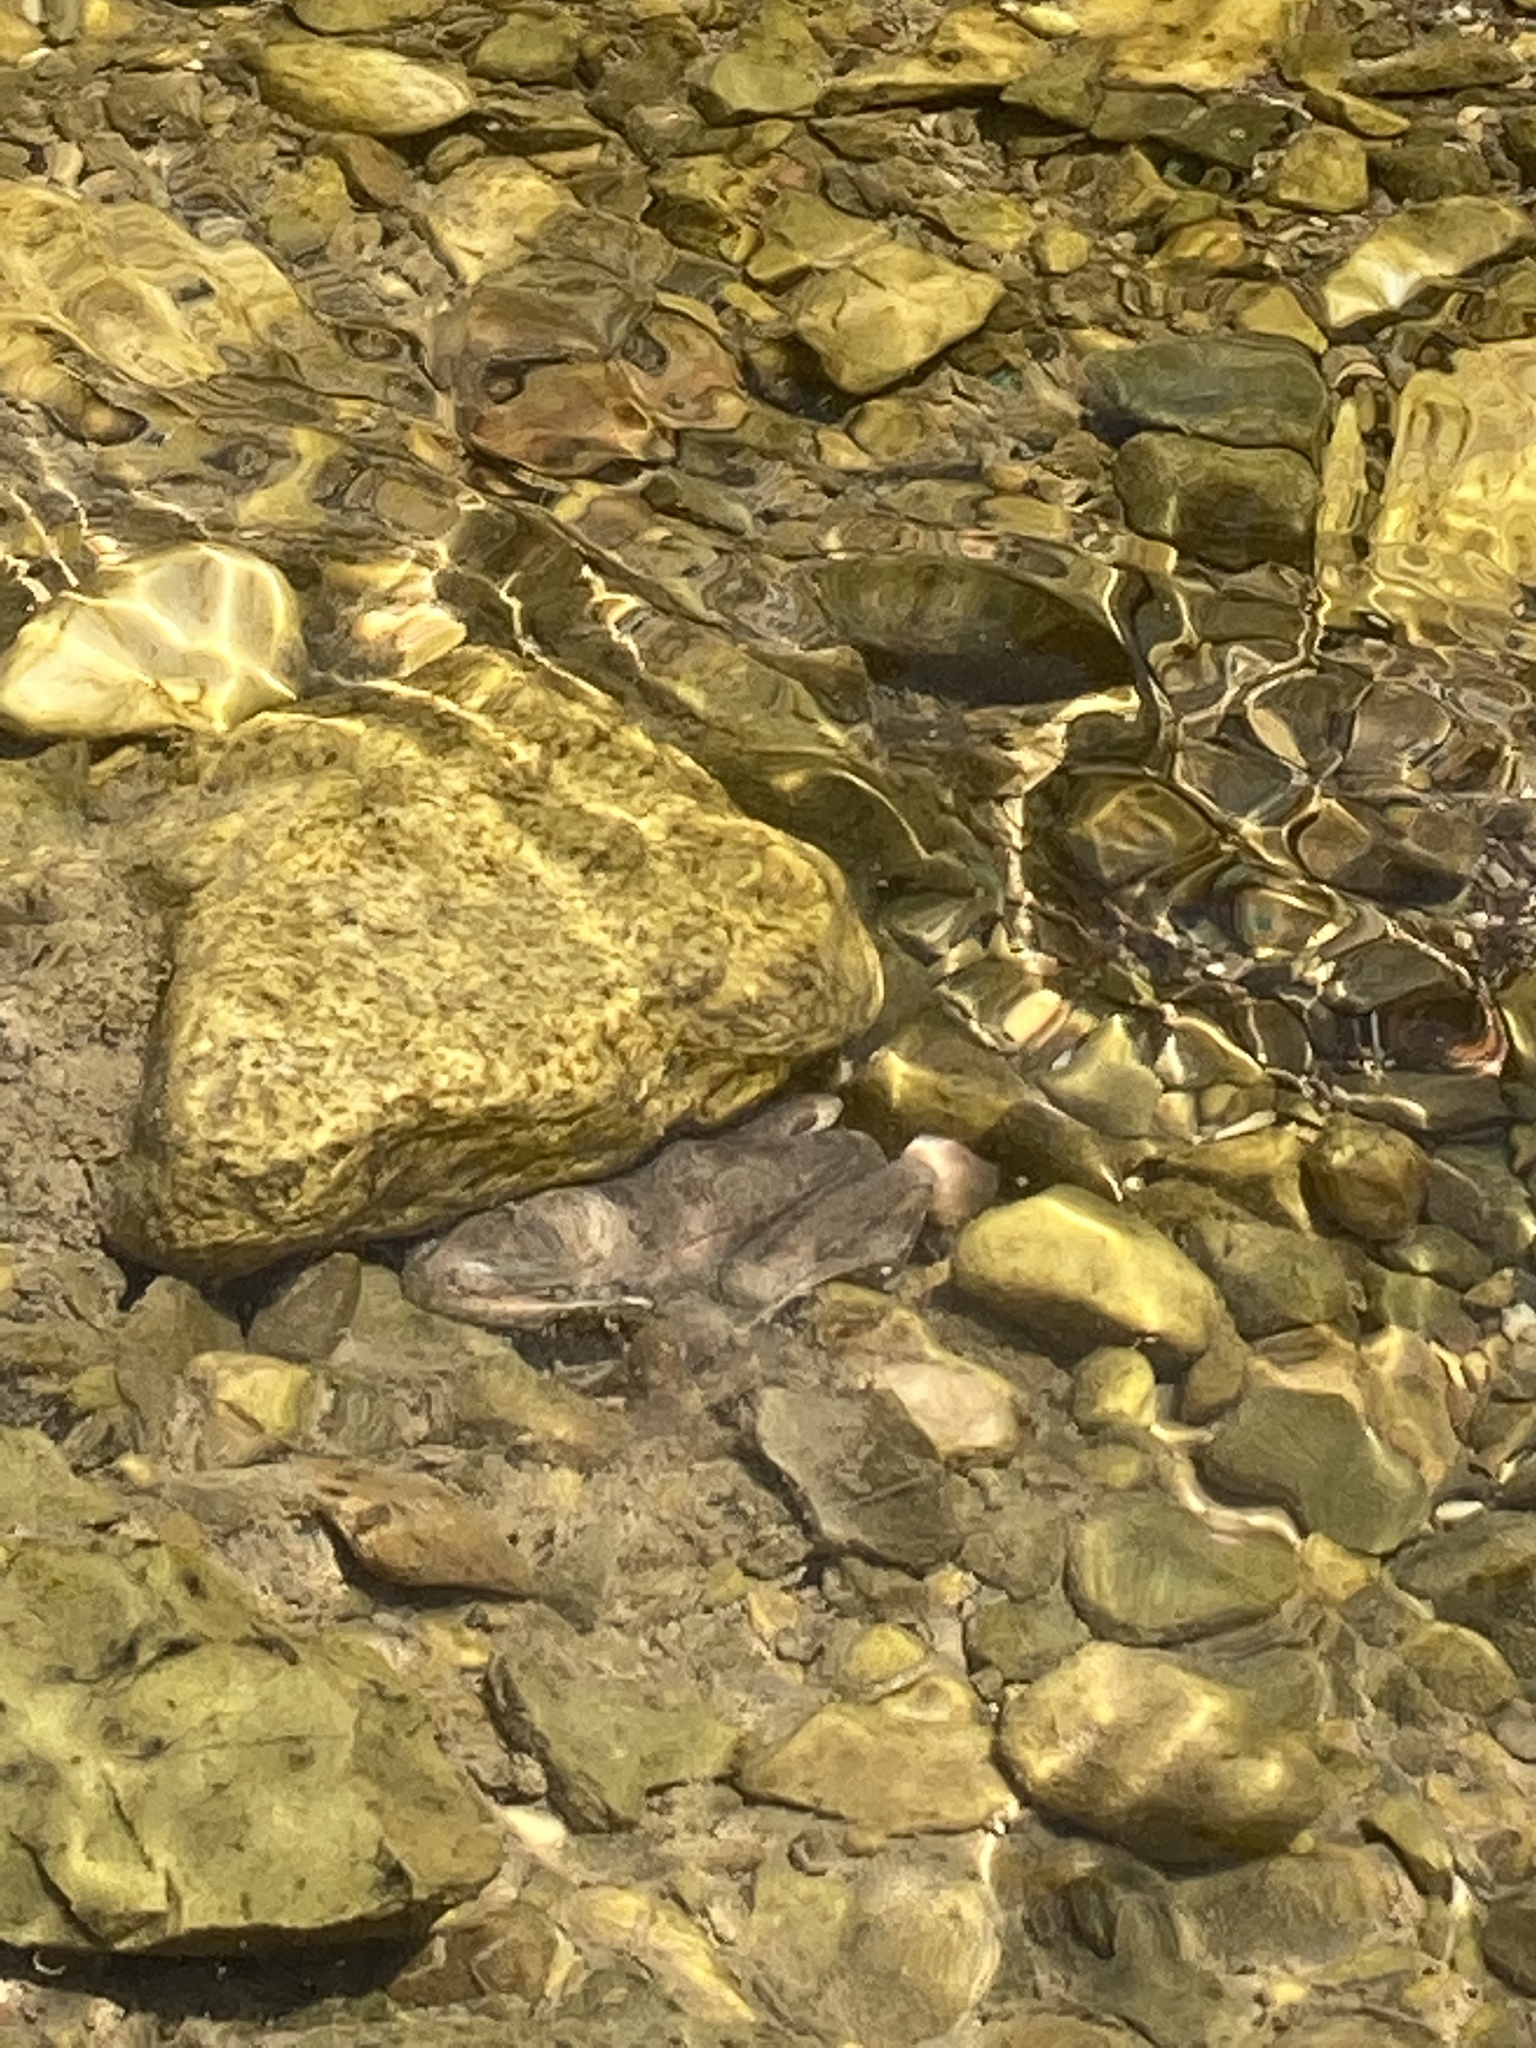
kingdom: Animalia
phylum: Chordata
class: Amphibia
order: Anura
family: Ranidae
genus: Pelophylax
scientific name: Pelophylax ridibundus
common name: Marsh frog
